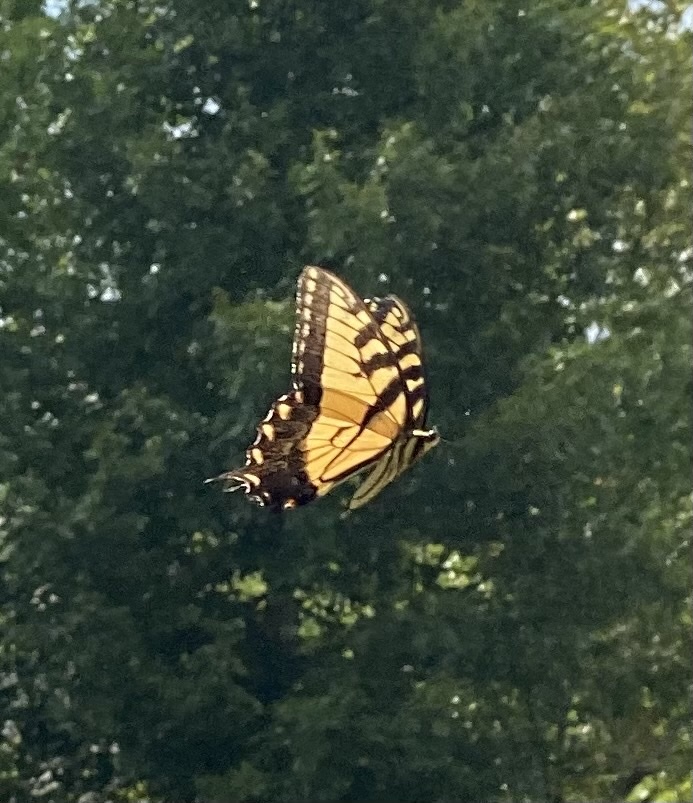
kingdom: Animalia
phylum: Arthropoda
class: Insecta
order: Lepidoptera
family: Papilionidae
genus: Papilio
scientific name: Papilio glaucus
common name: Tiger swallowtail
